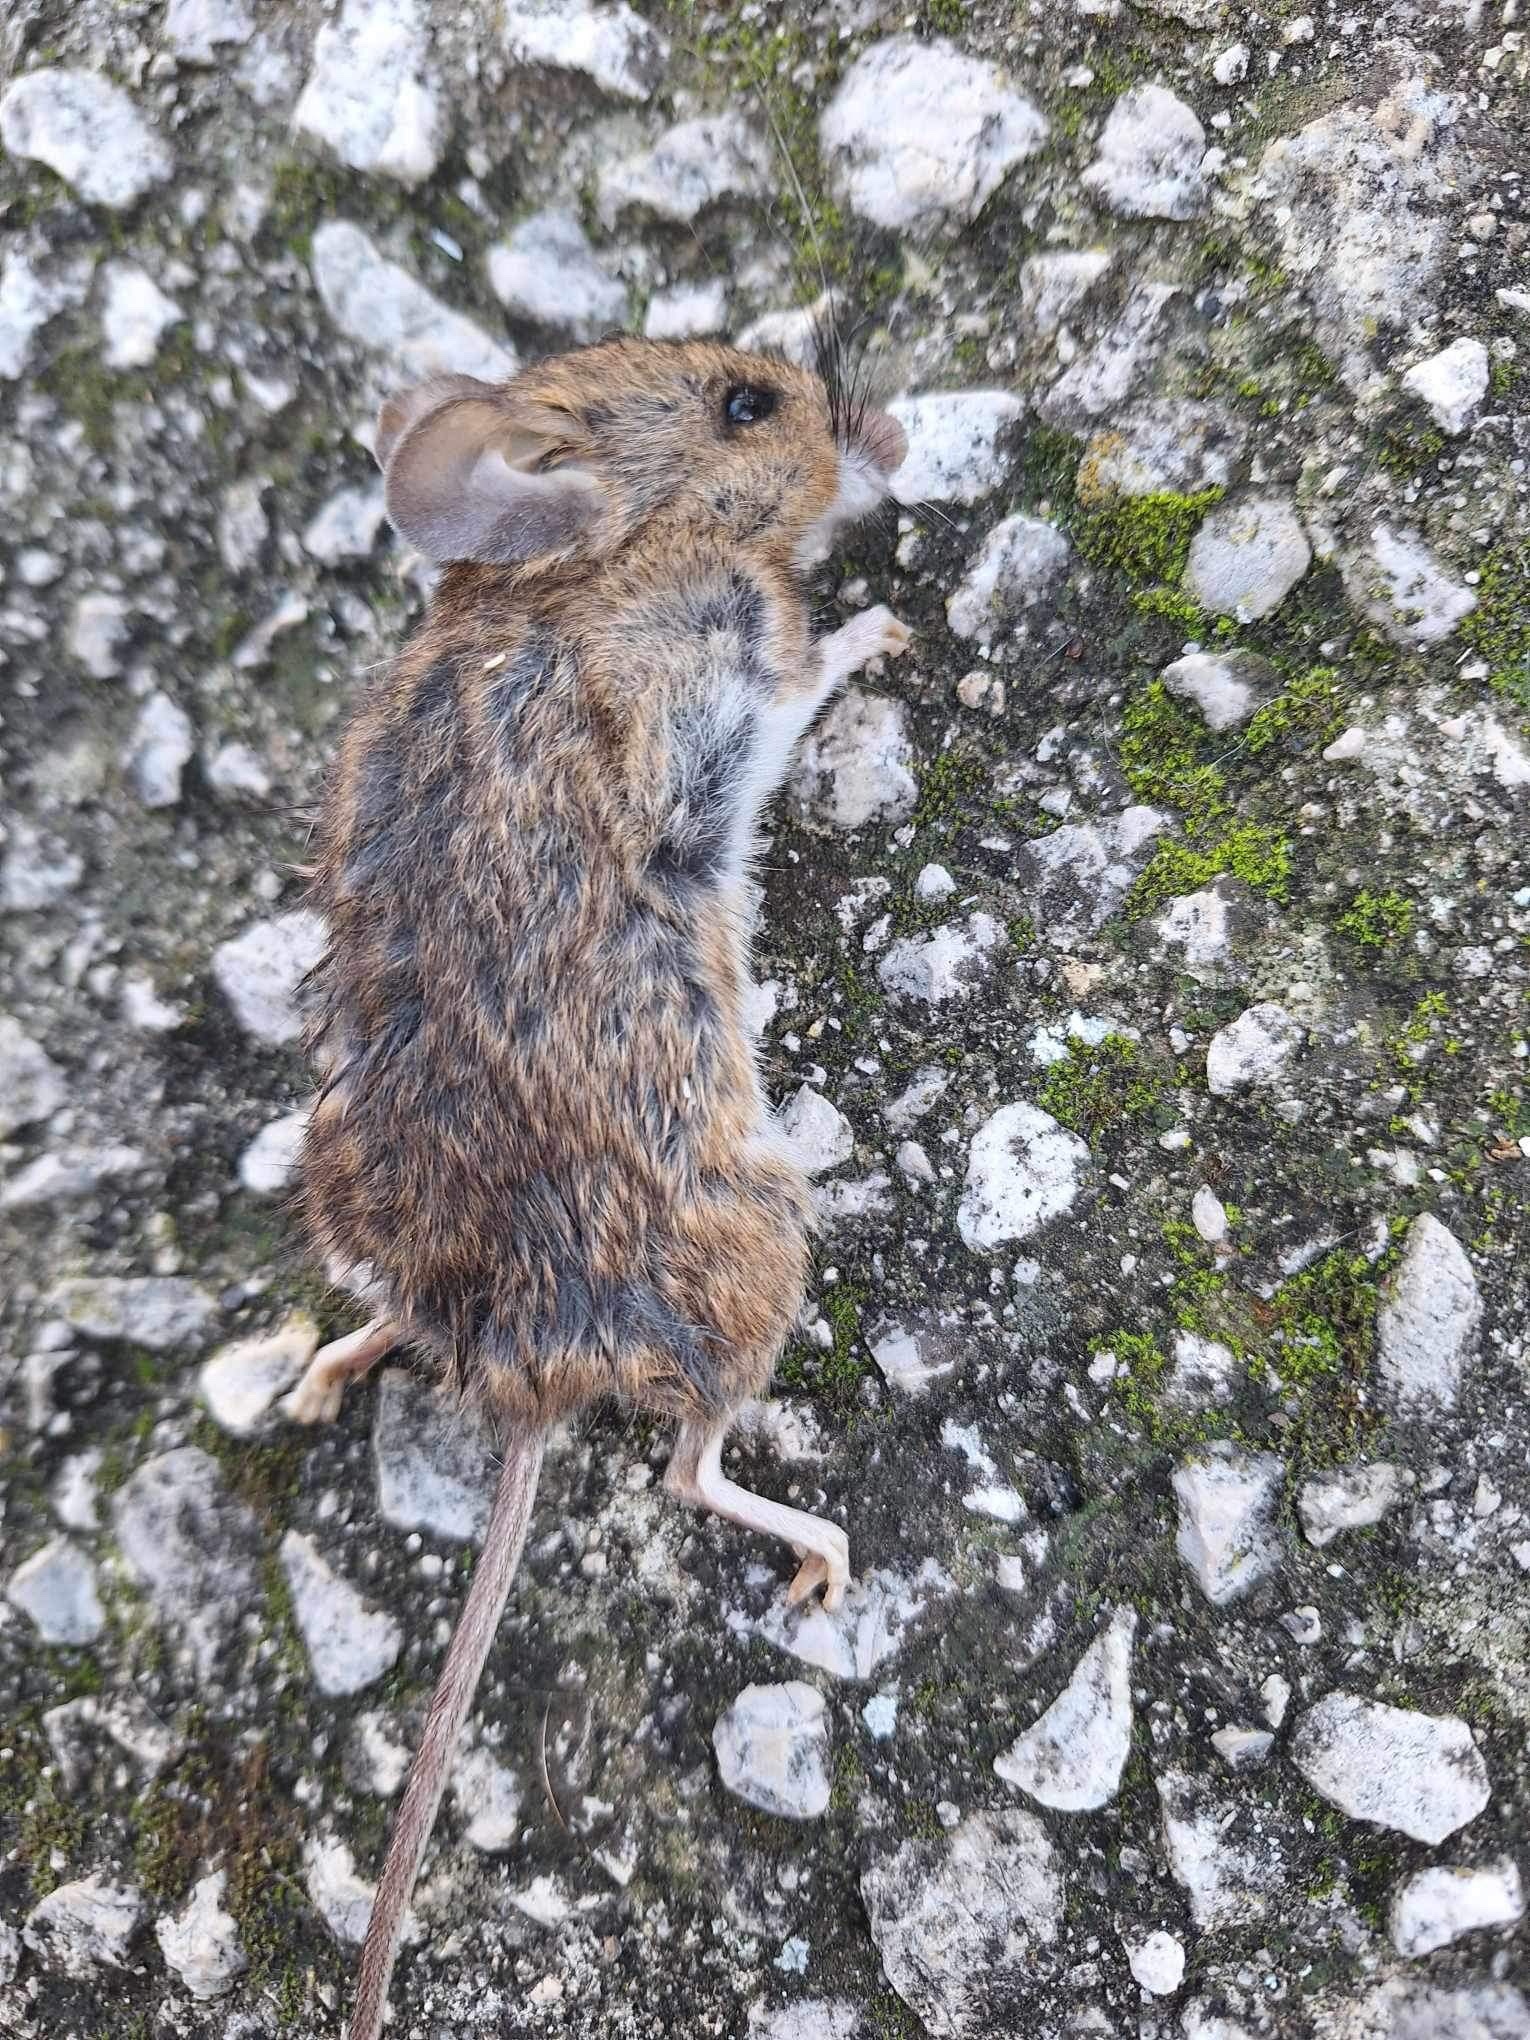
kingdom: Animalia
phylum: Chordata
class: Mammalia
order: Rodentia
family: Muridae
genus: Apodemus
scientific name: Apodemus sylvaticus
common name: Wood mouse
